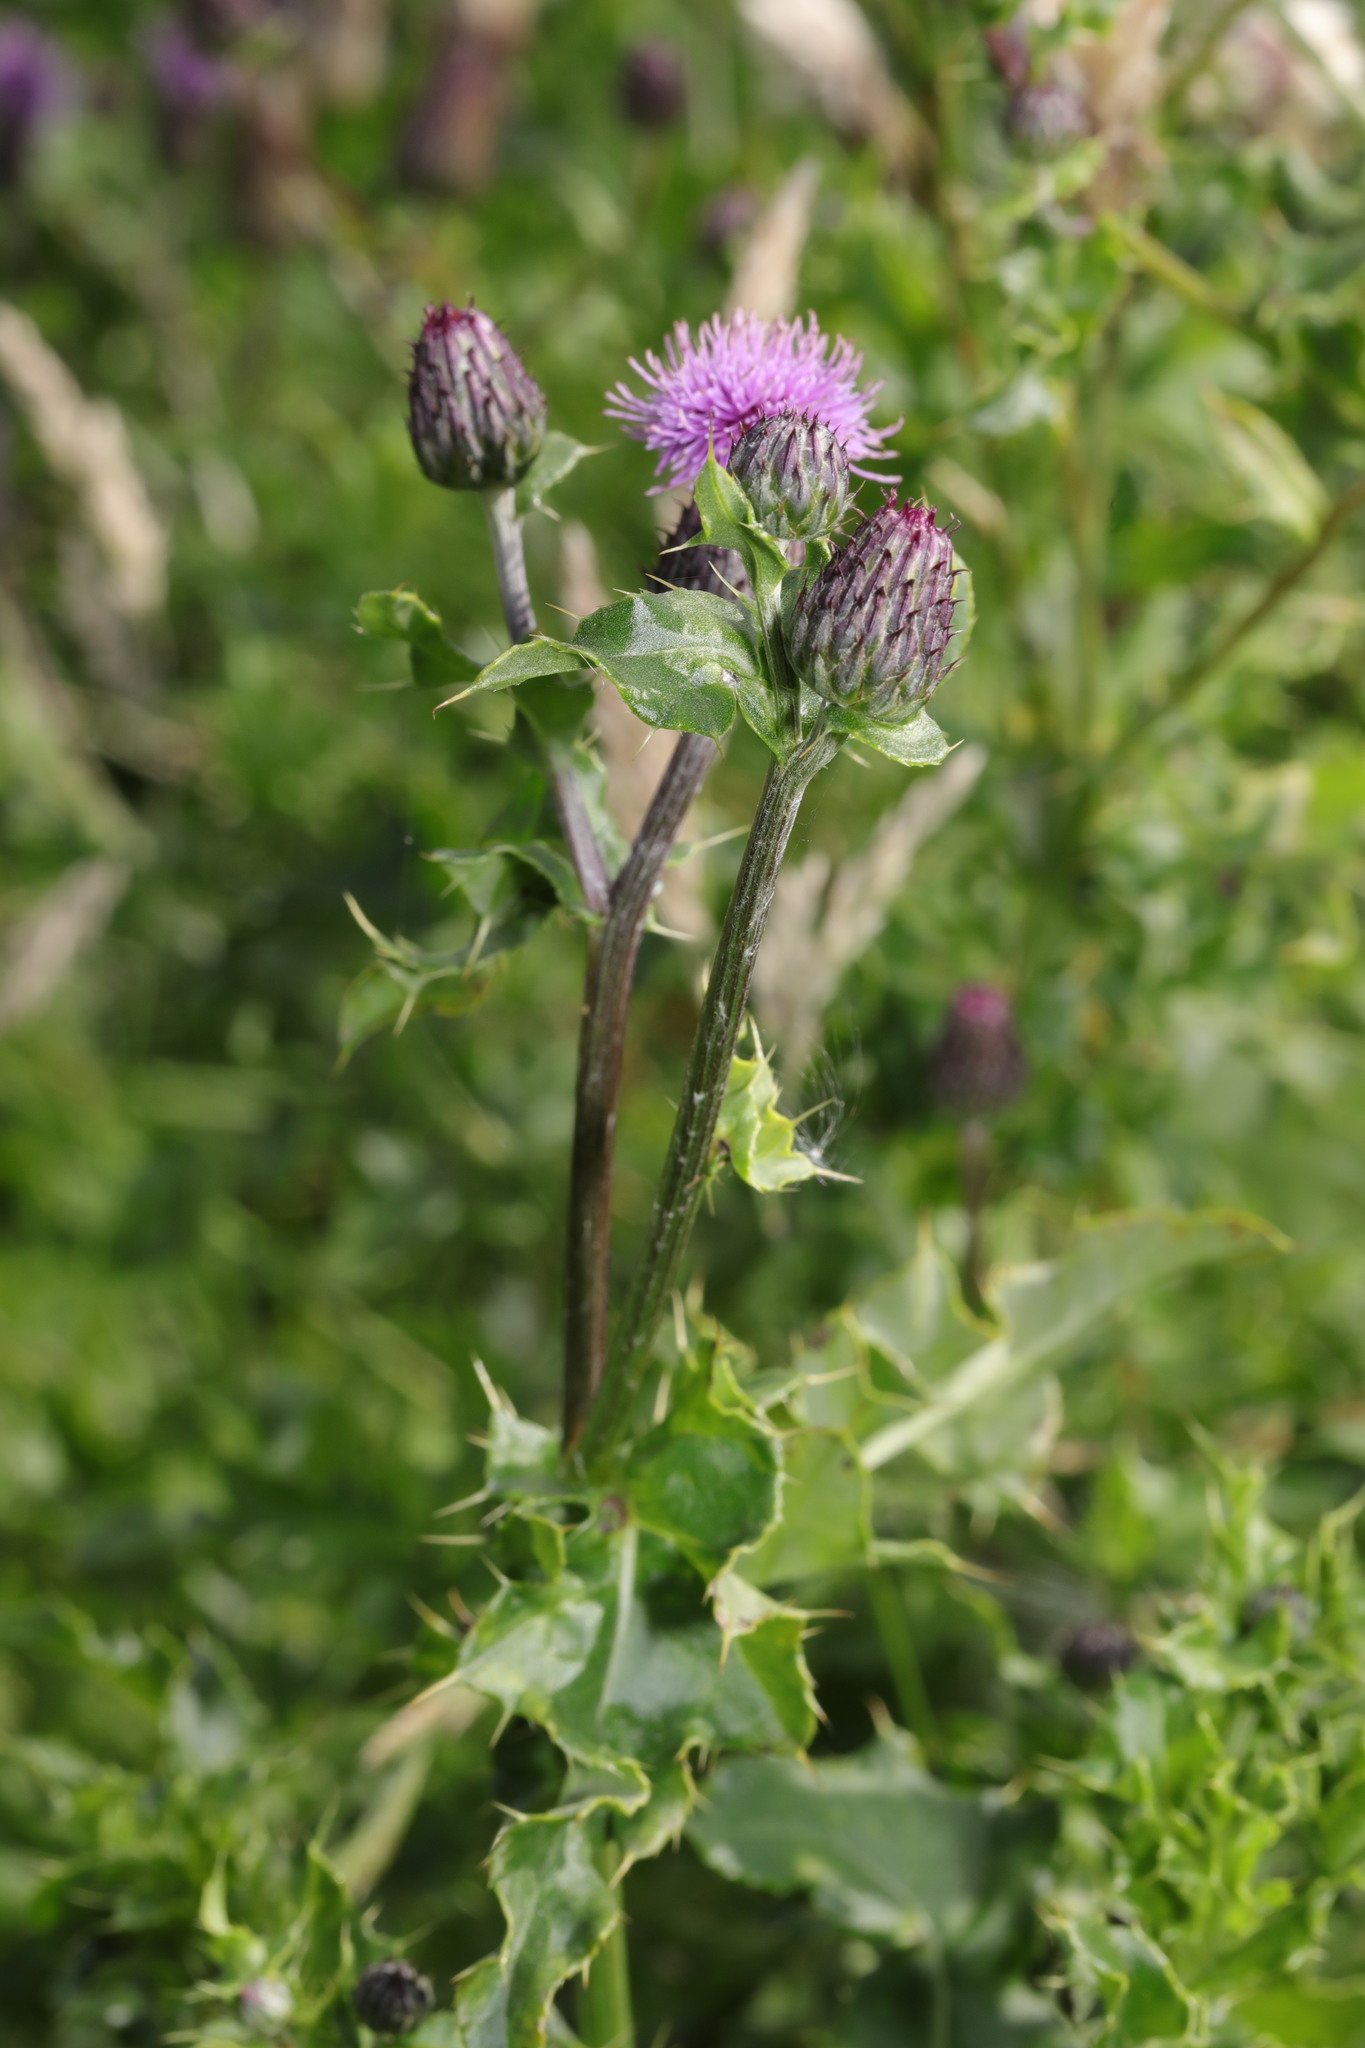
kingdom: Plantae
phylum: Tracheophyta
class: Magnoliopsida
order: Asterales
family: Asteraceae
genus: Cirsium
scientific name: Cirsium arvense
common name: Creeping thistle
